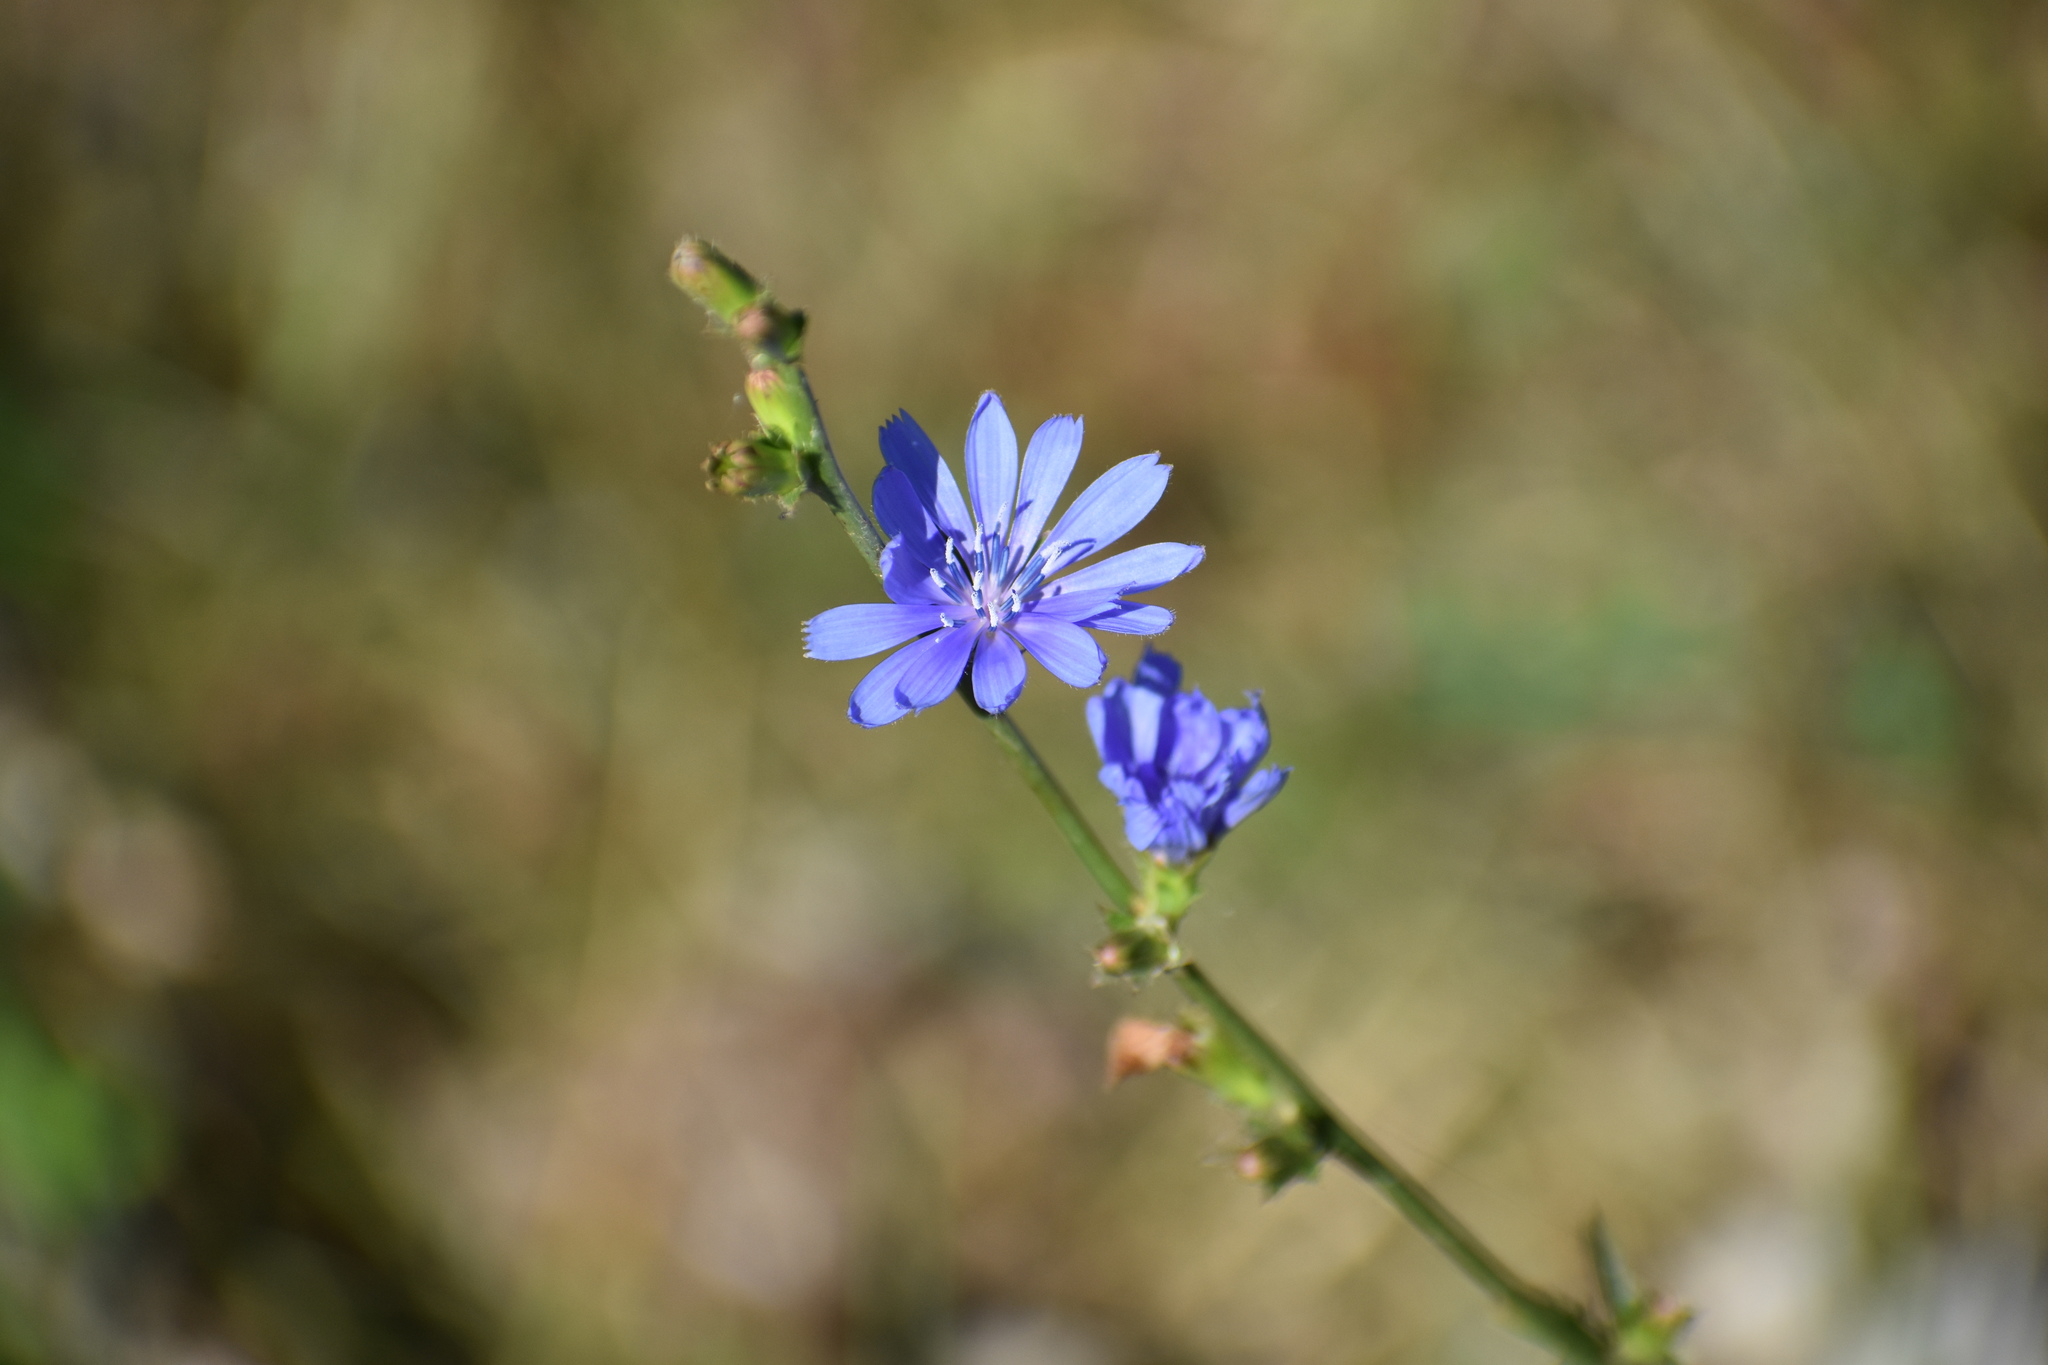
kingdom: Plantae
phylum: Tracheophyta
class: Magnoliopsida
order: Asterales
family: Asteraceae
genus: Cichorium
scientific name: Cichorium intybus
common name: Chicory
